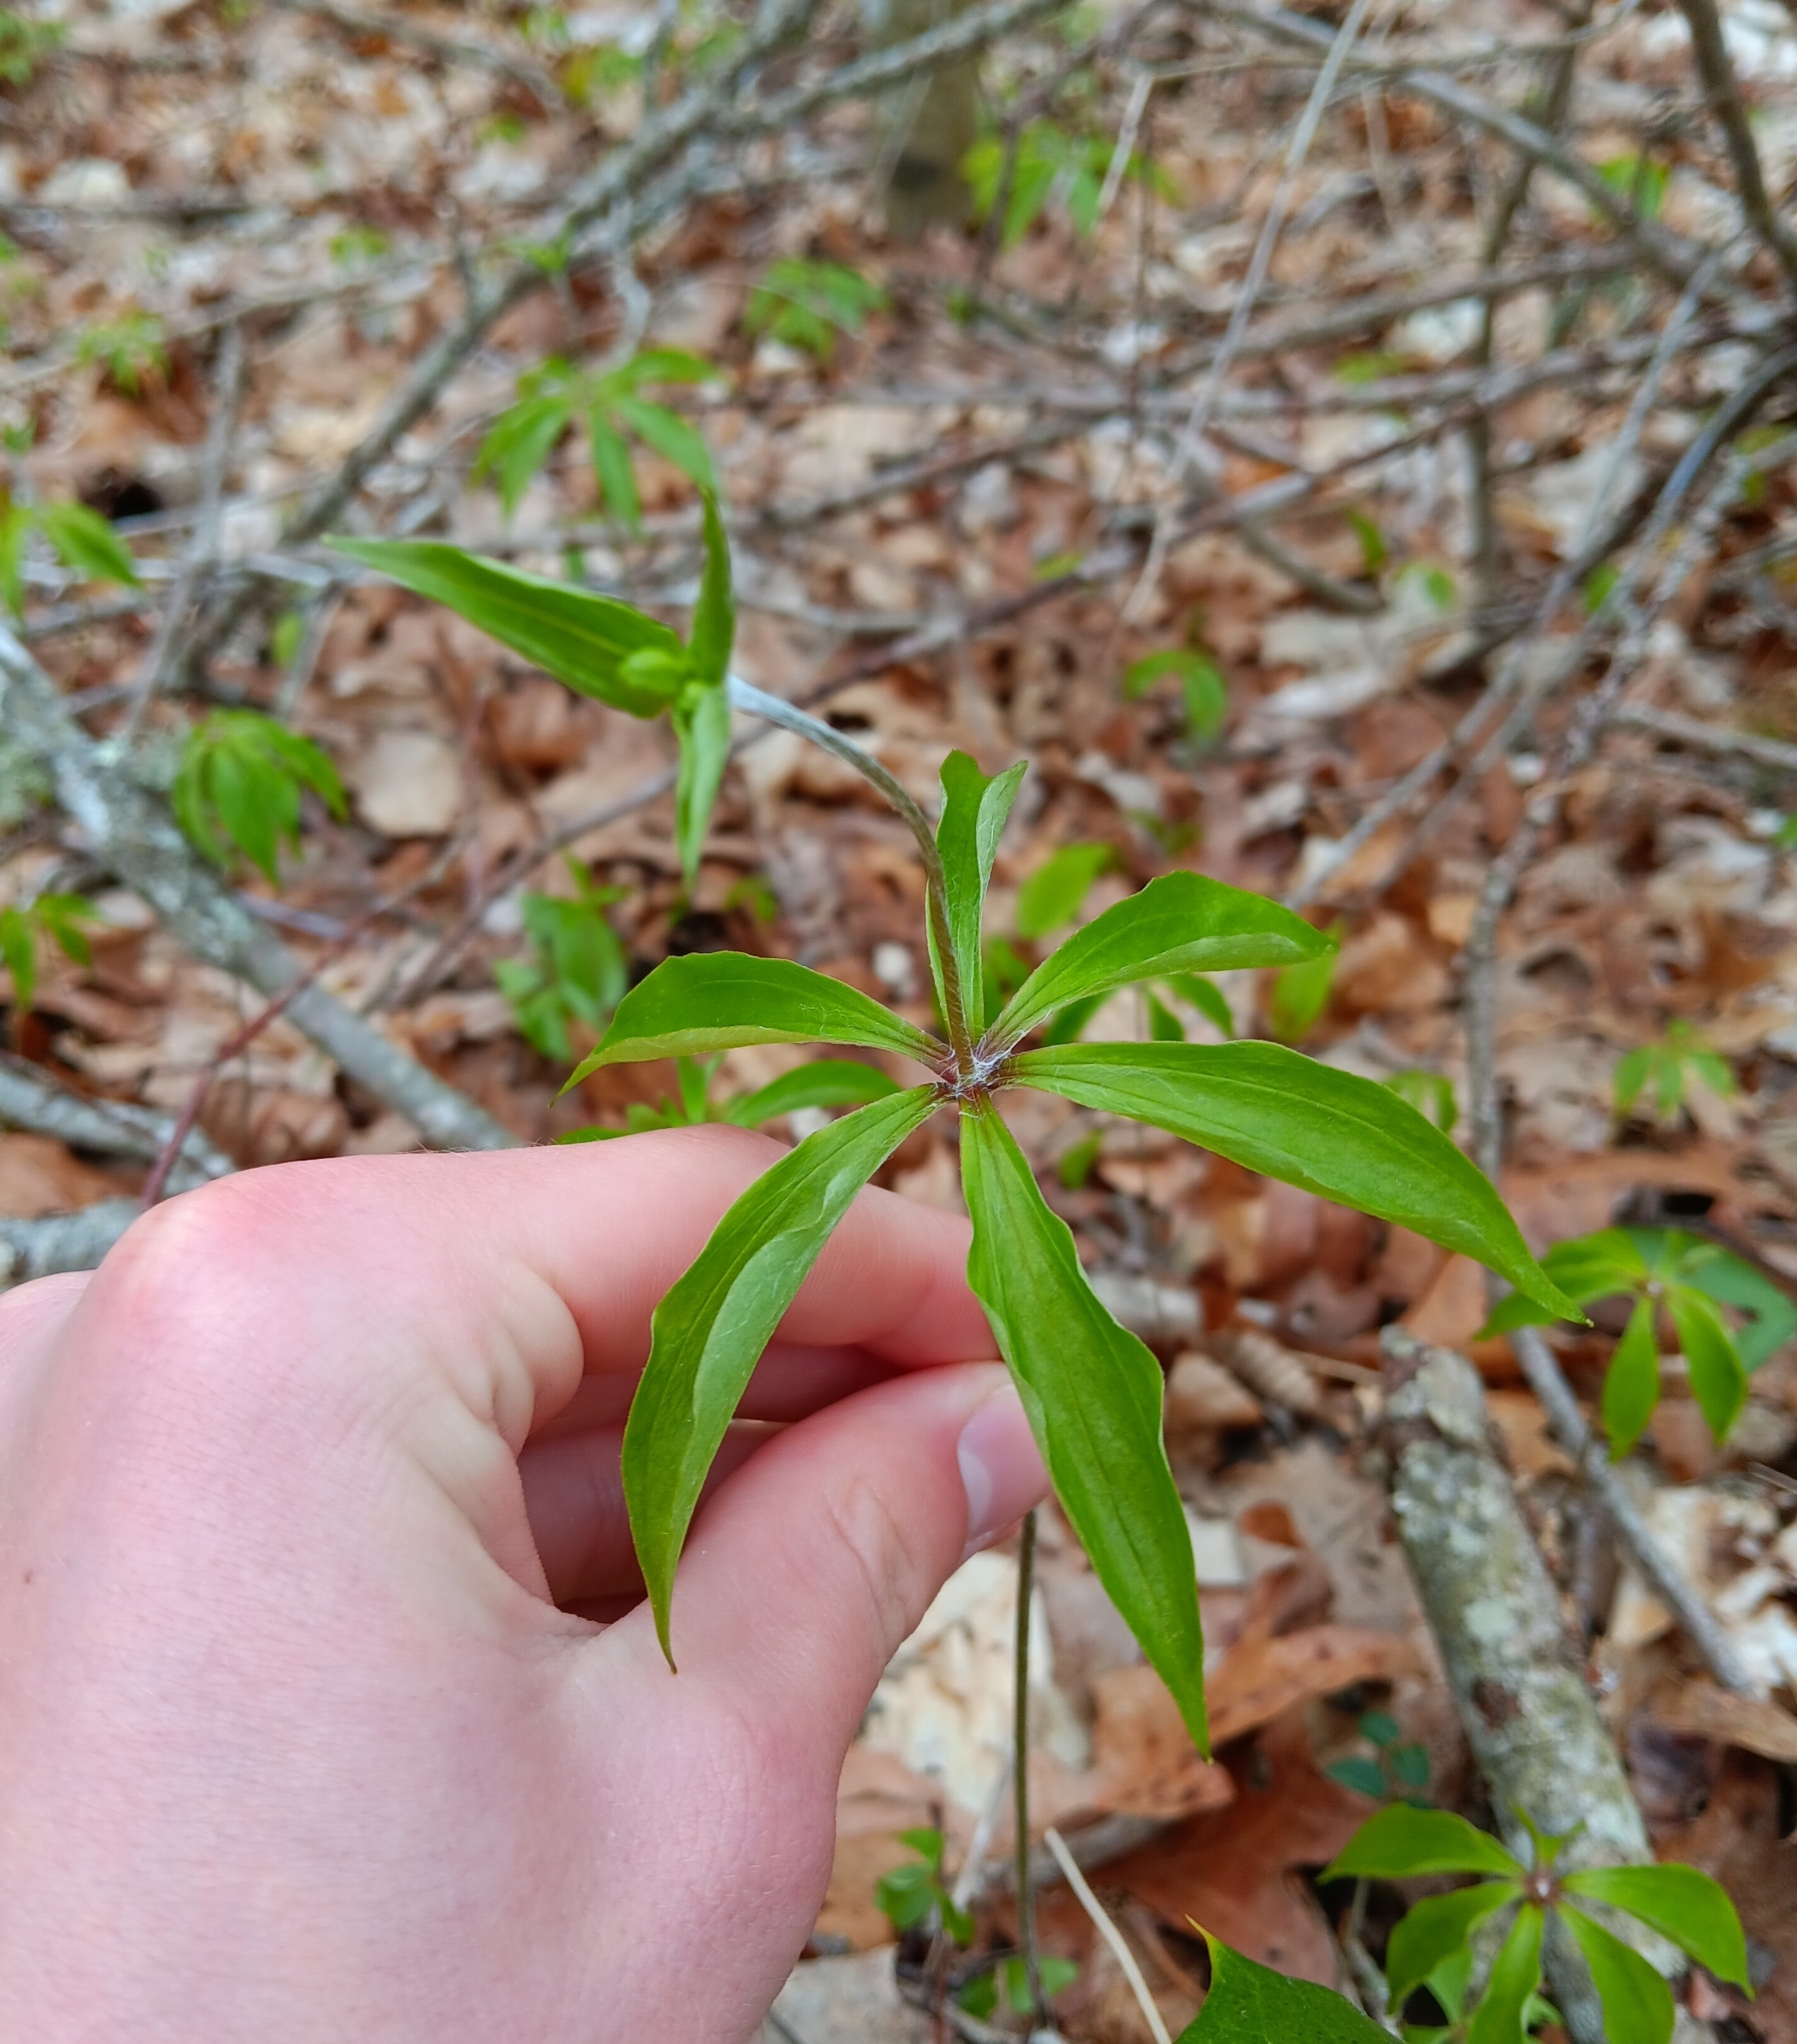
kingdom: Plantae
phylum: Tracheophyta
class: Liliopsida
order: Liliales
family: Liliaceae
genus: Medeola
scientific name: Medeola virginiana
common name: Indian cucumber-root
